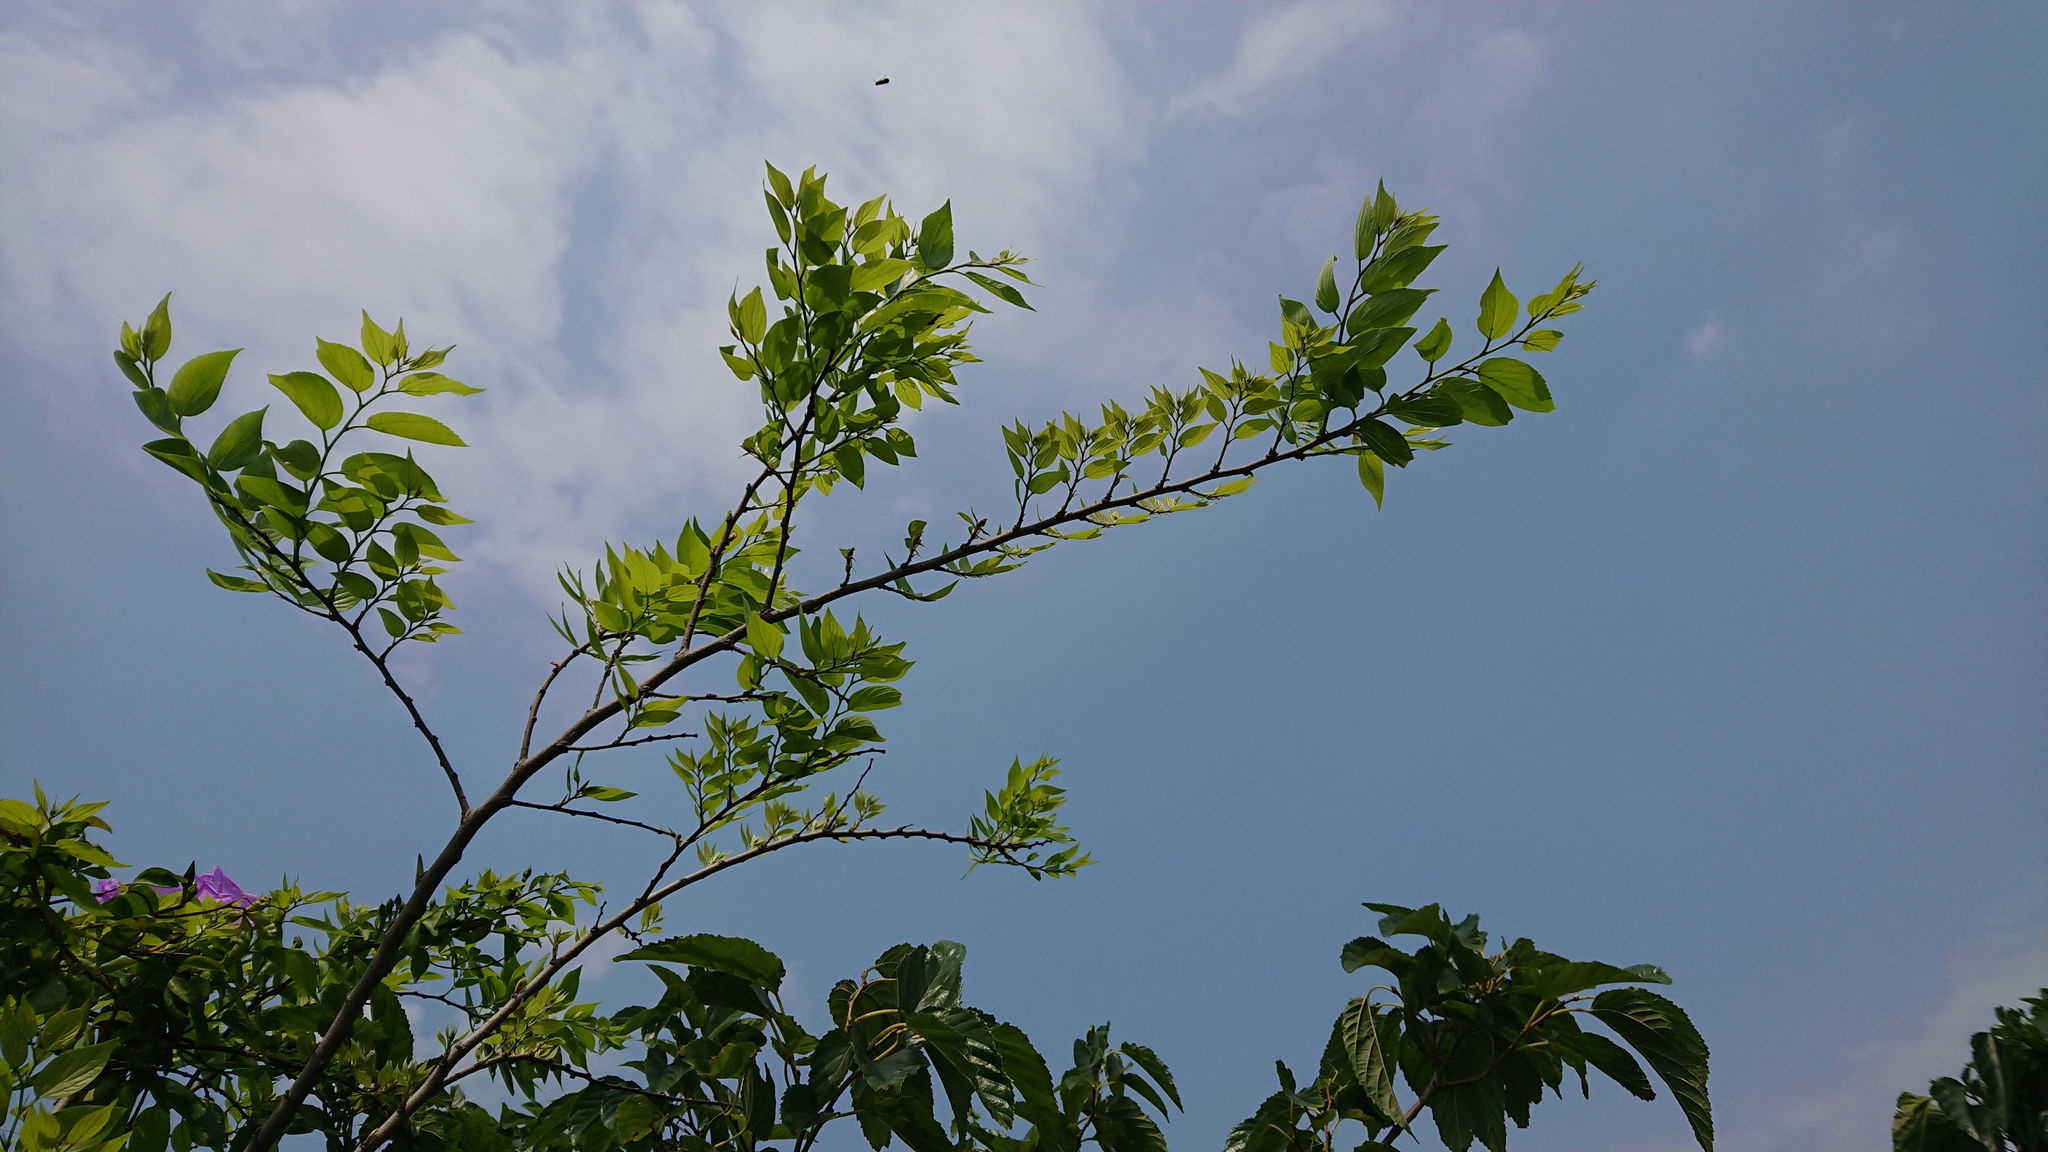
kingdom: Plantae
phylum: Tracheophyta
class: Magnoliopsida
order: Rosales
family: Cannabaceae
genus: Celtis
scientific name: Celtis sinensis
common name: Chinese hackberry
